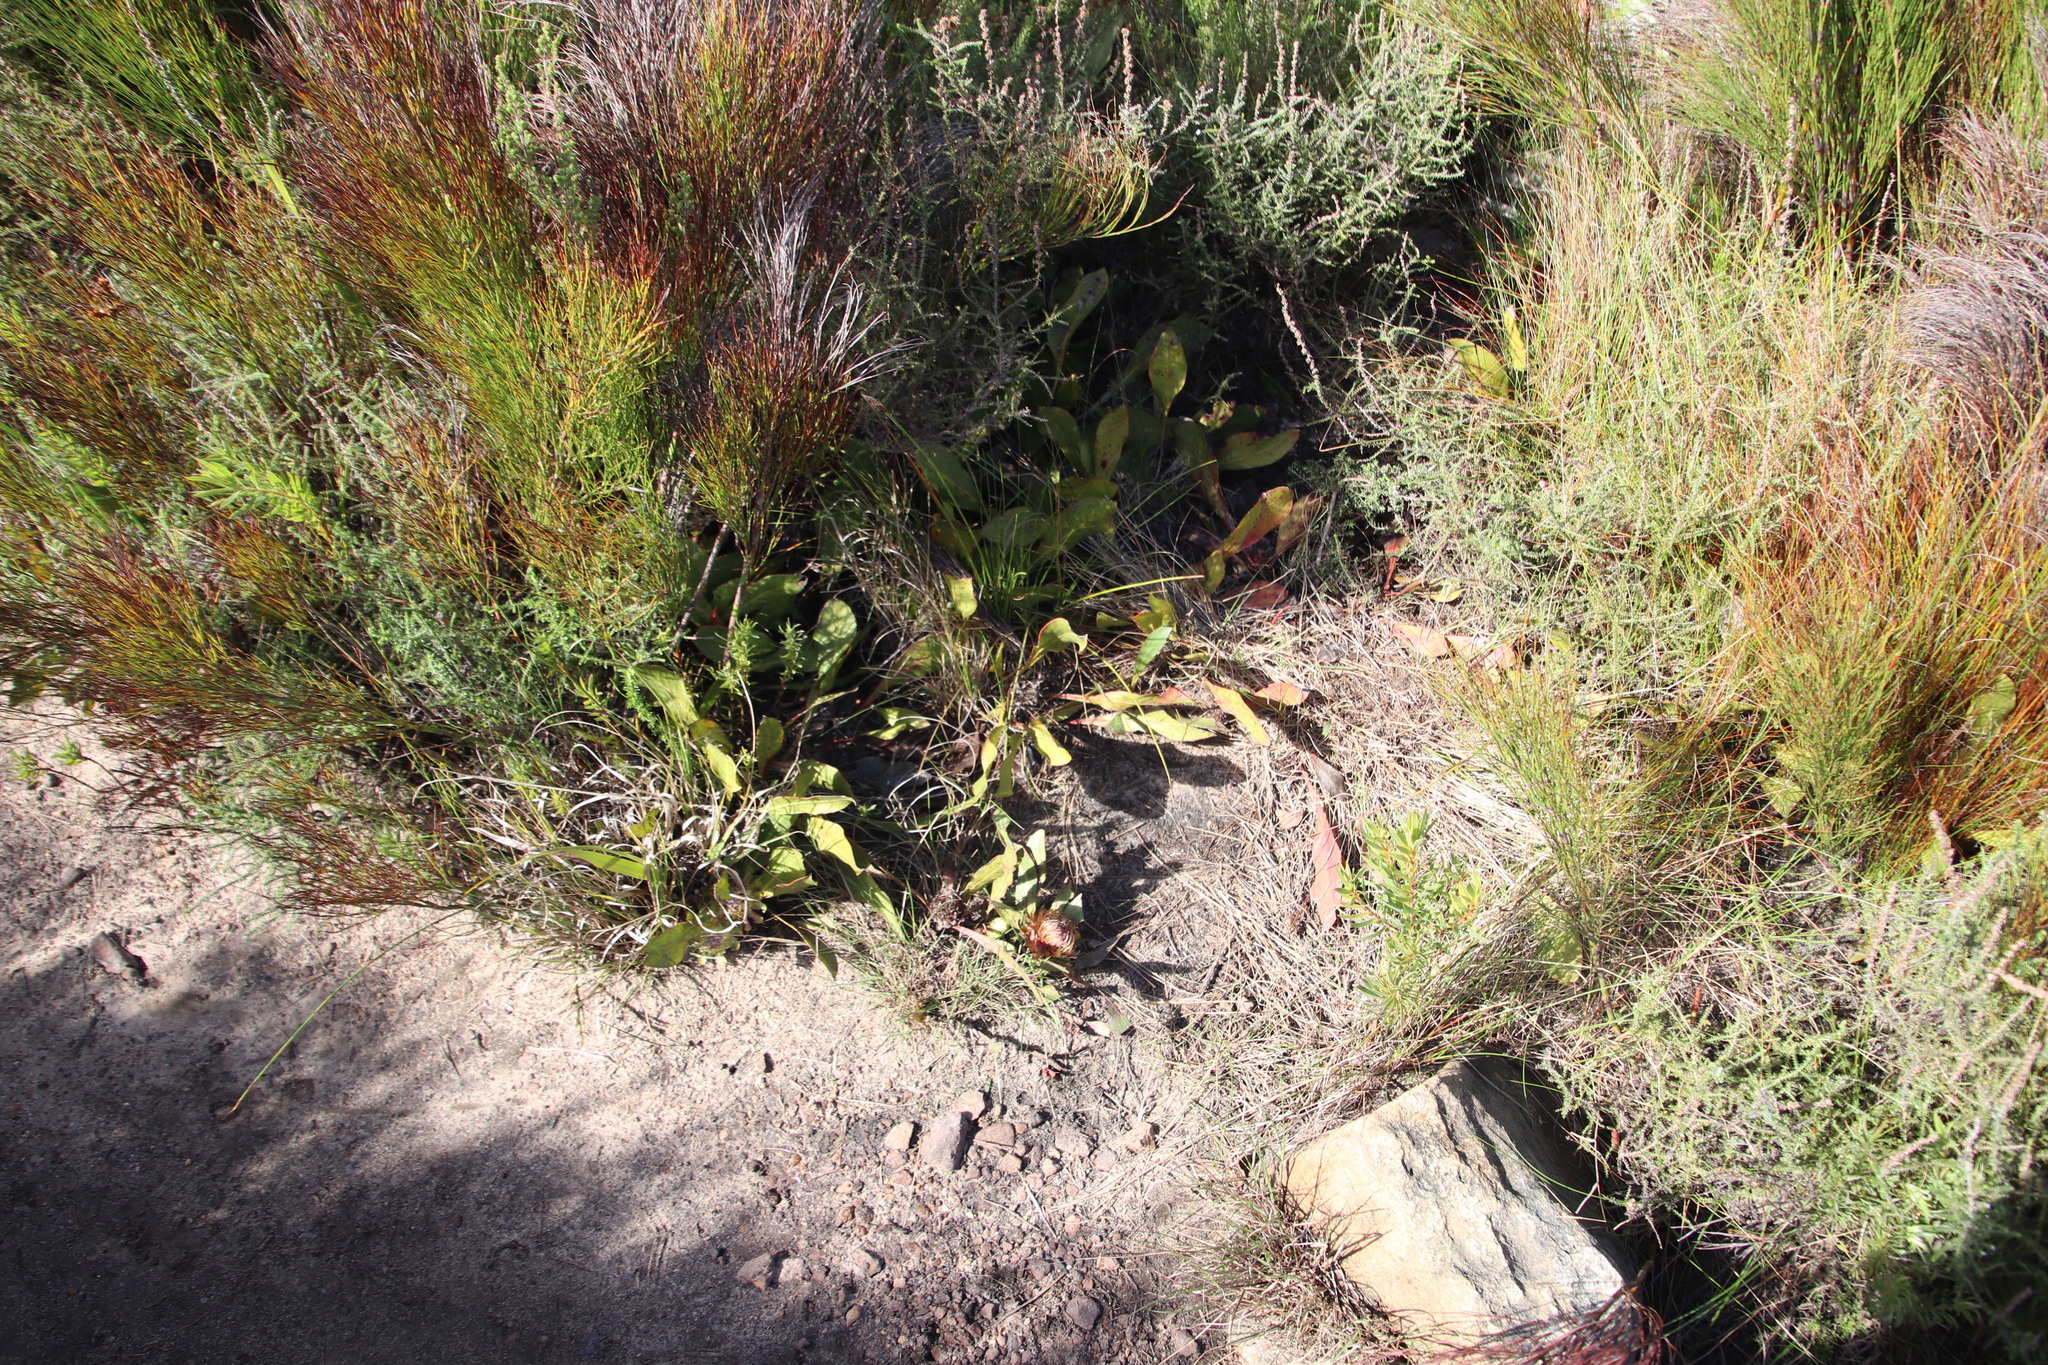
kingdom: Plantae
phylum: Tracheophyta
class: Magnoliopsida
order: Proteales
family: Proteaceae
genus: Protea
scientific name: Protea acaulos
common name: Common ground sugarbush
